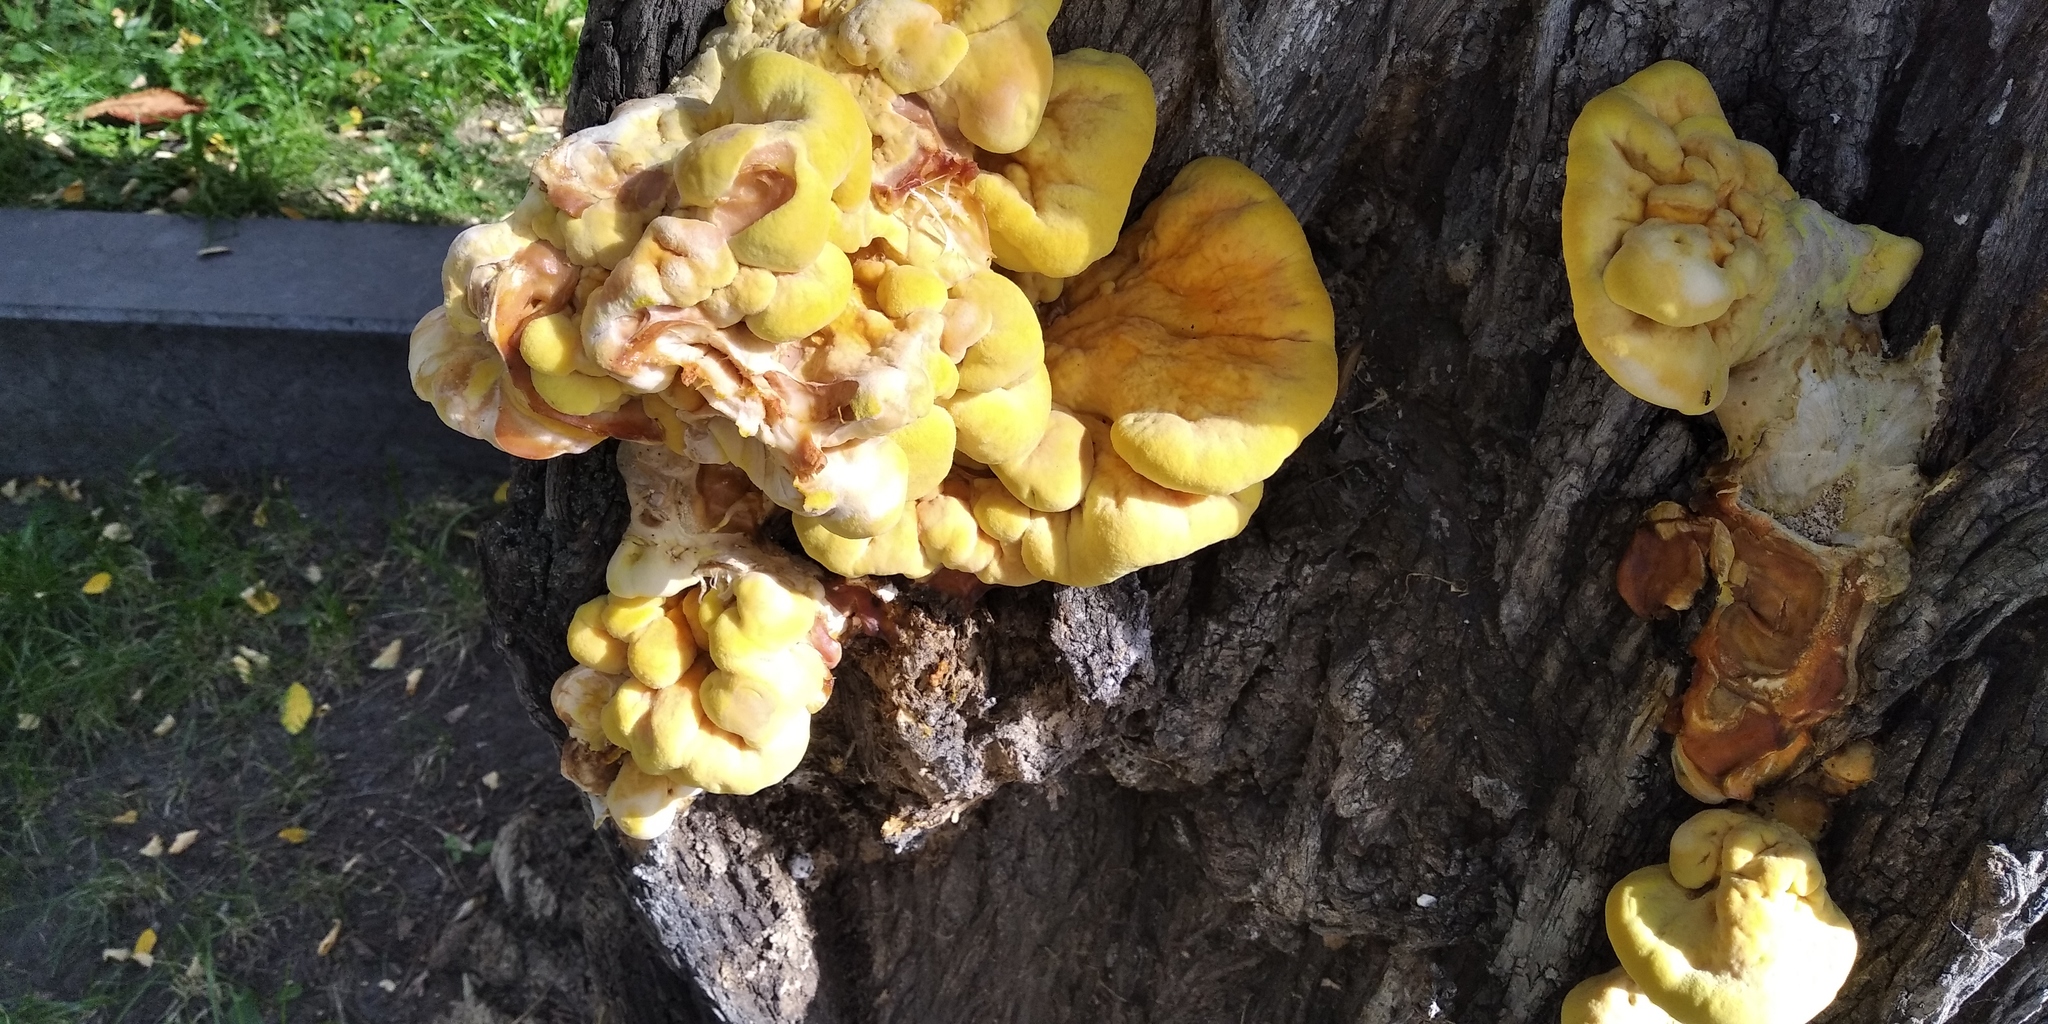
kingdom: Fungi
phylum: Basidiomycota
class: Agaricomycetes
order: Polyporales
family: Laetiporaceae
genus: Laetiporus
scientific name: Laetiporus sulphureus
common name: Chicken of the woods
